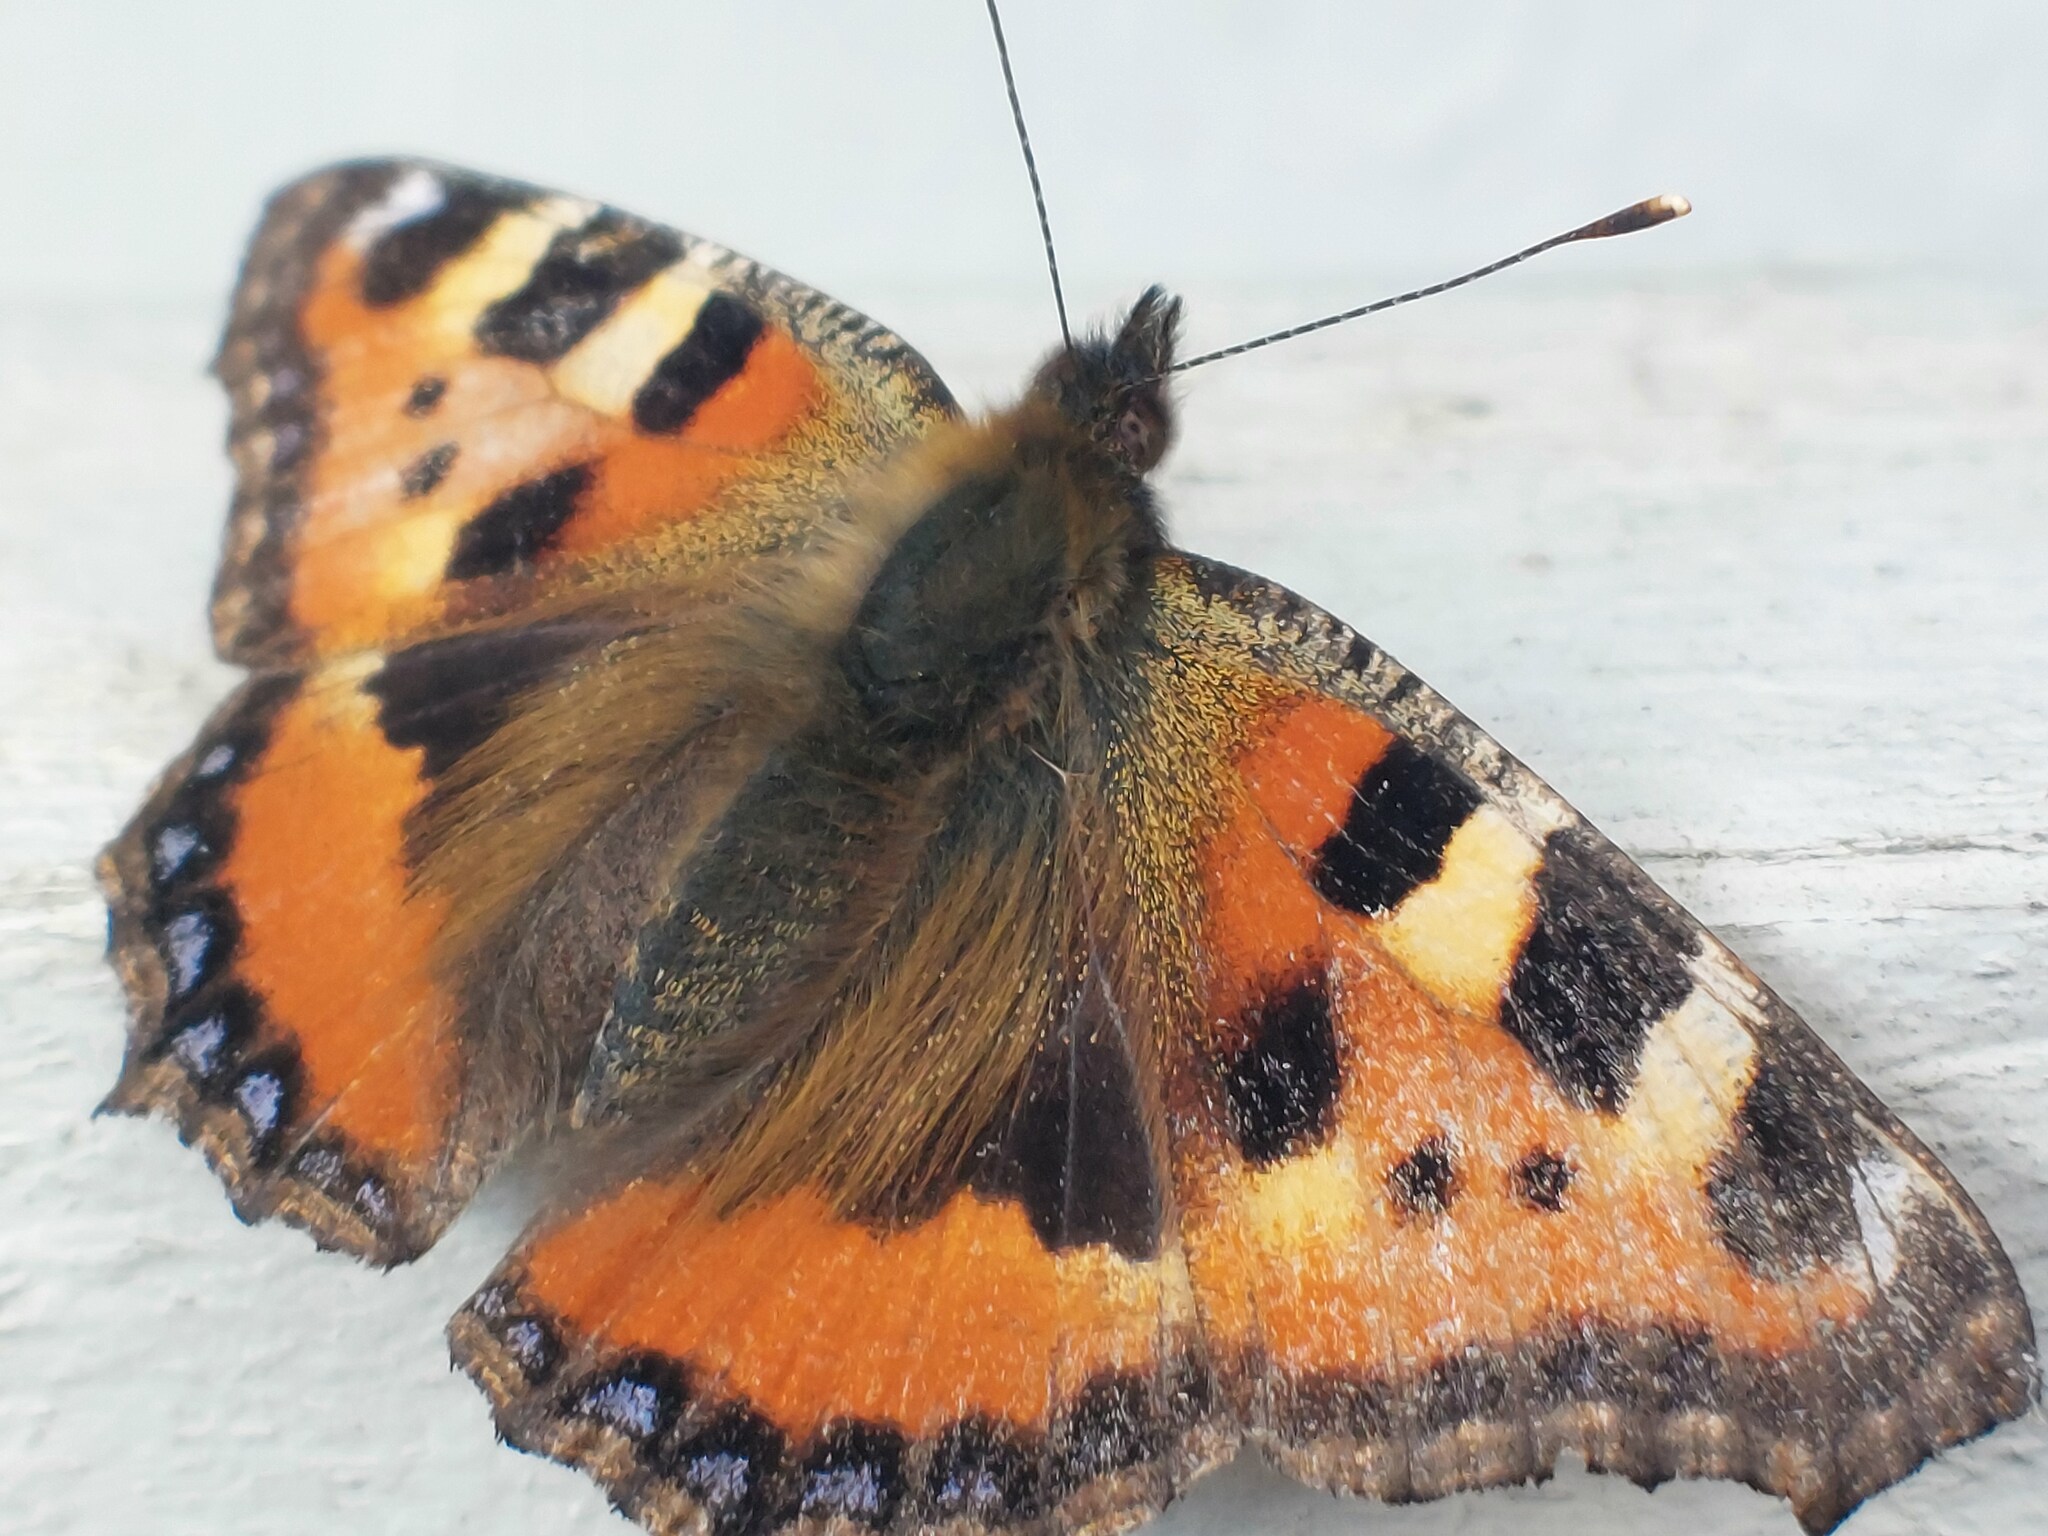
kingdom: Animalia
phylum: Arthropoda
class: Insecta
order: Lepidoptera
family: Nymphalidae
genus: Aglais
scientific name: Aglais urticae
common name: Small tortoiseshell
